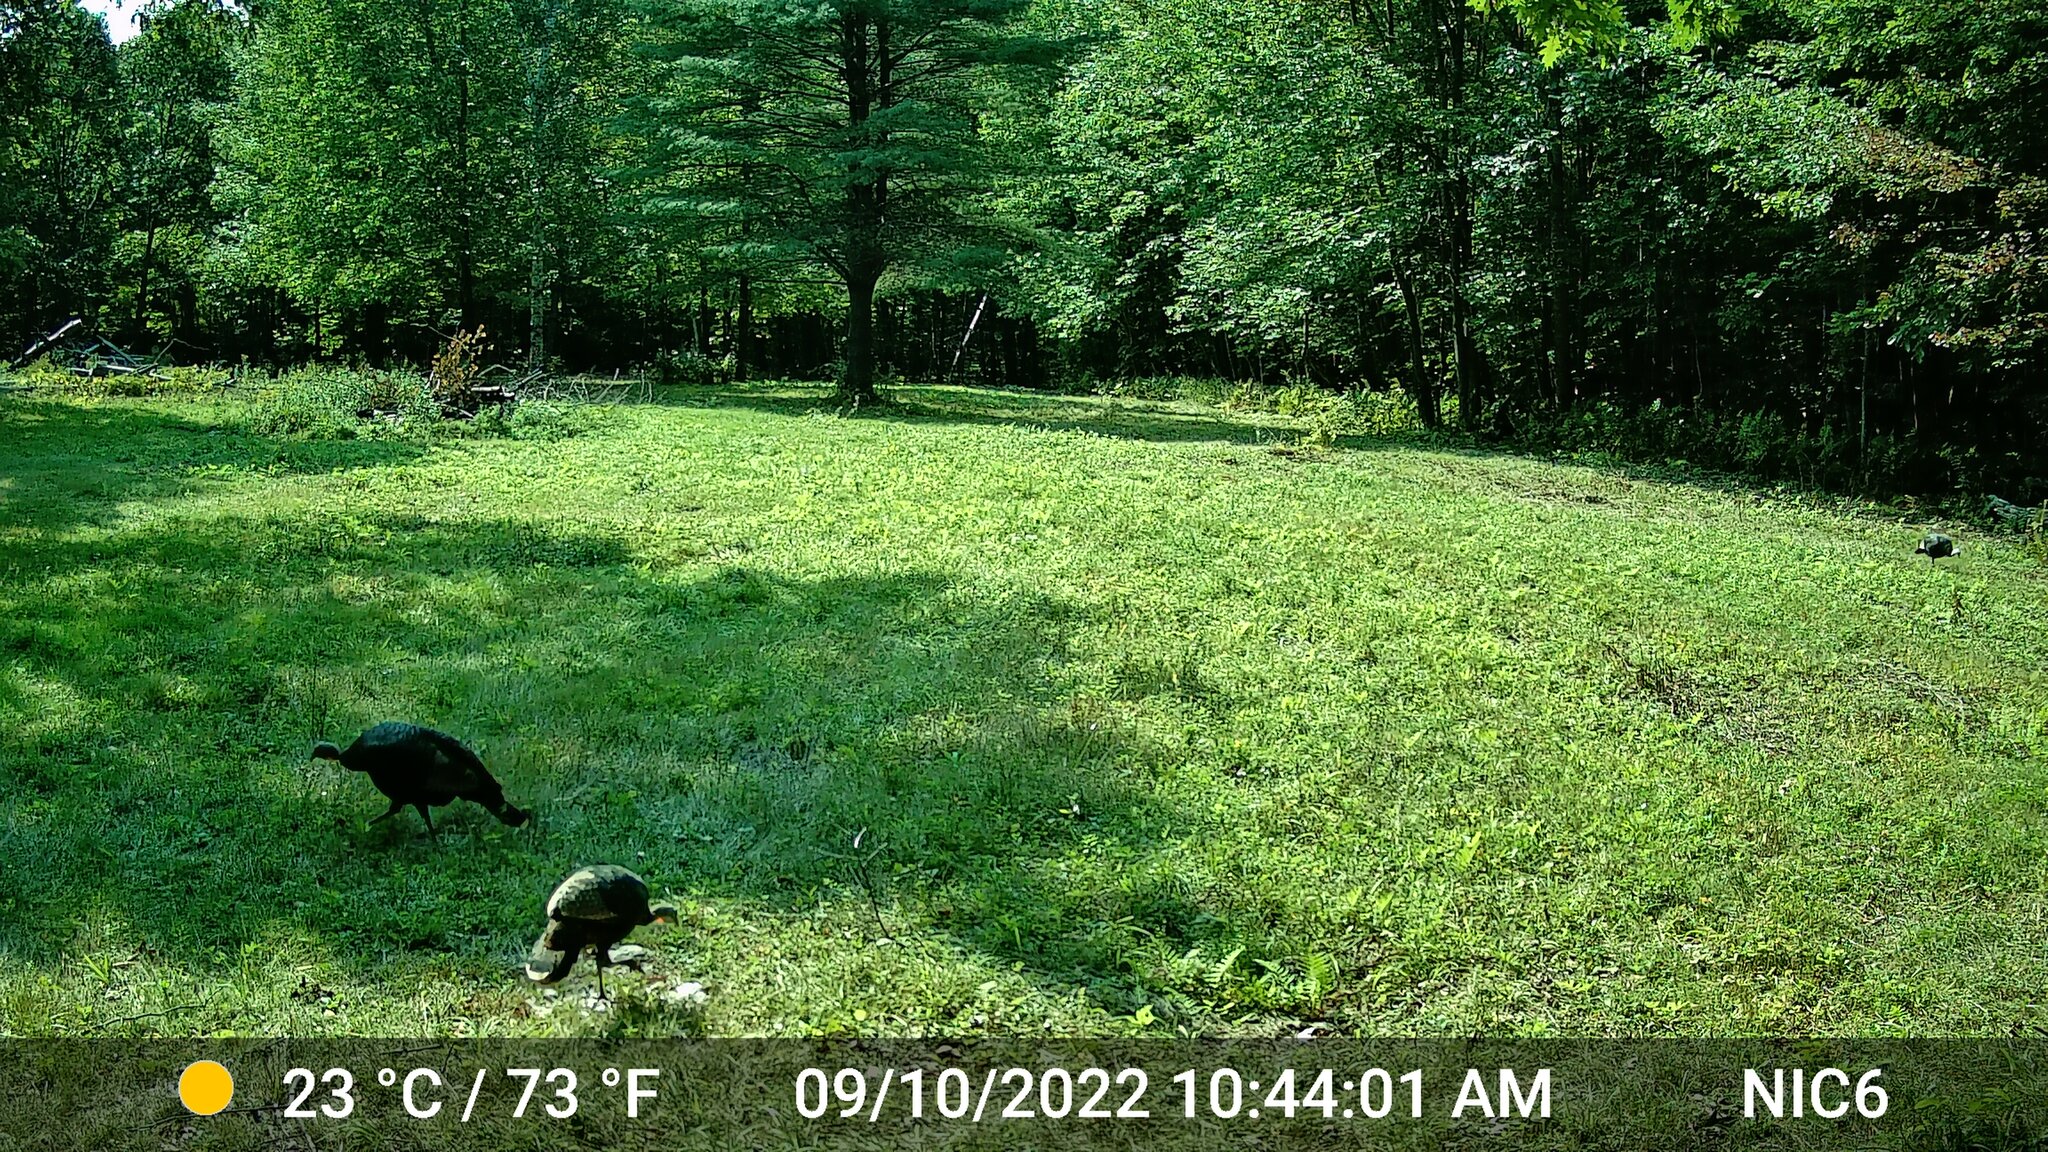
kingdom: Animalia
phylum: Chordata
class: Aves
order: Galliformes
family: Phasianidae
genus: Meleagris
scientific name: Meleagris gallopavo
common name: Wild turkey
